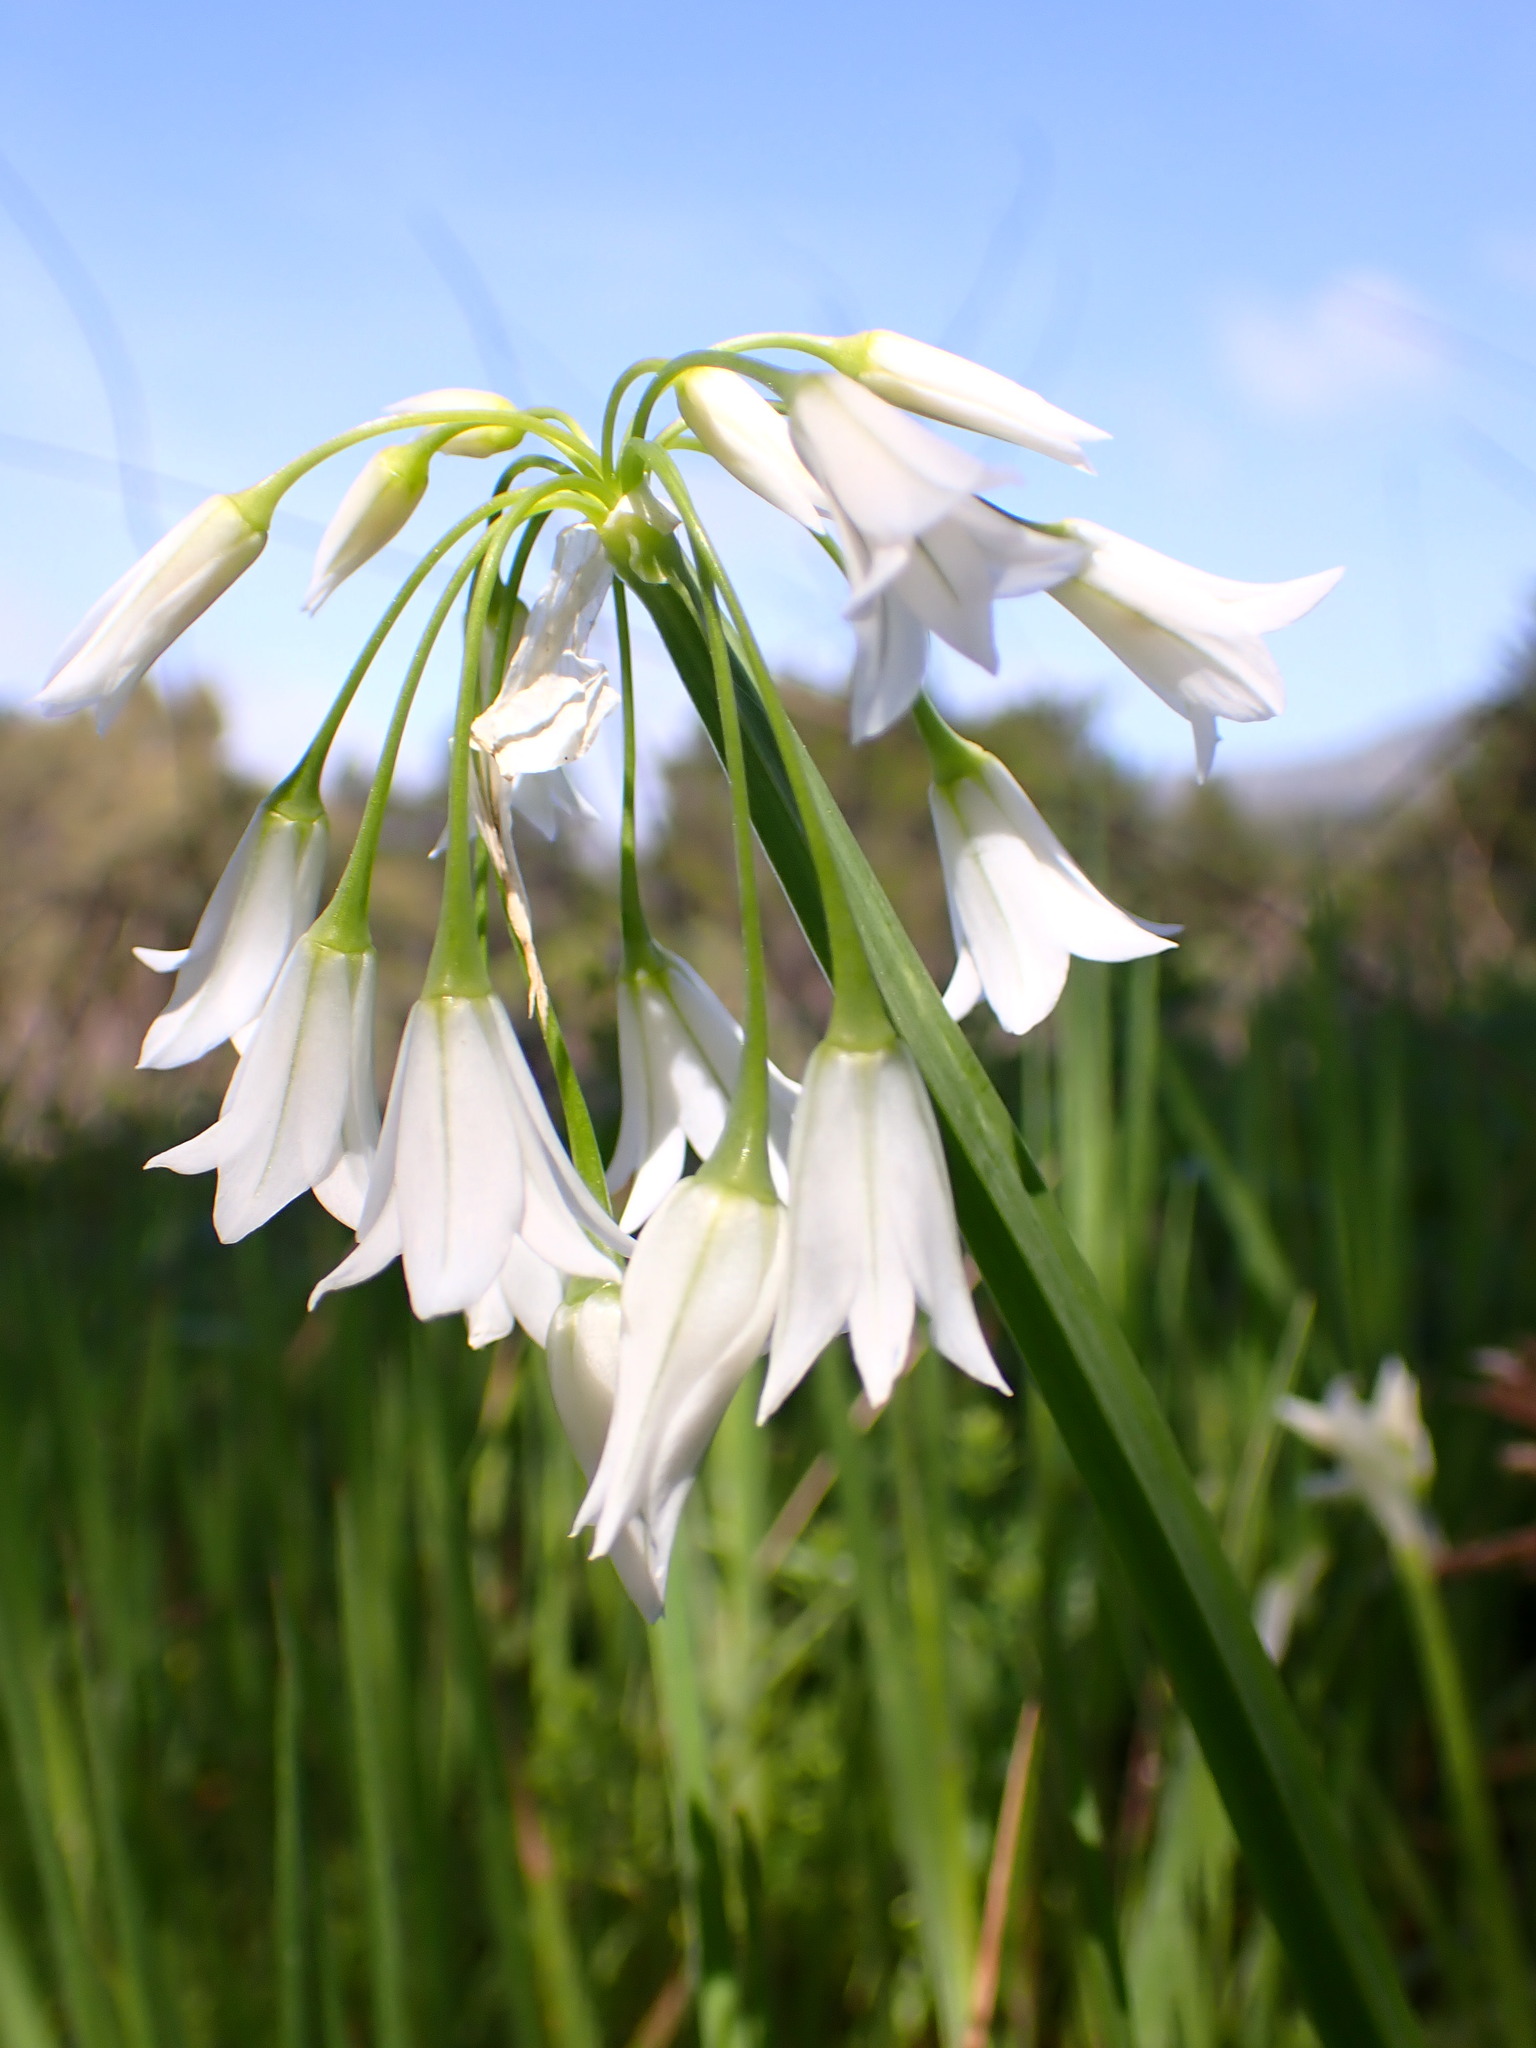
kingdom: Plantae
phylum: Tracheophyta
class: Liliopsida
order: Asparagales
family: Amaryllidaceae
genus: Allium
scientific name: Allium triquetrum
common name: Three-cornered garlic
